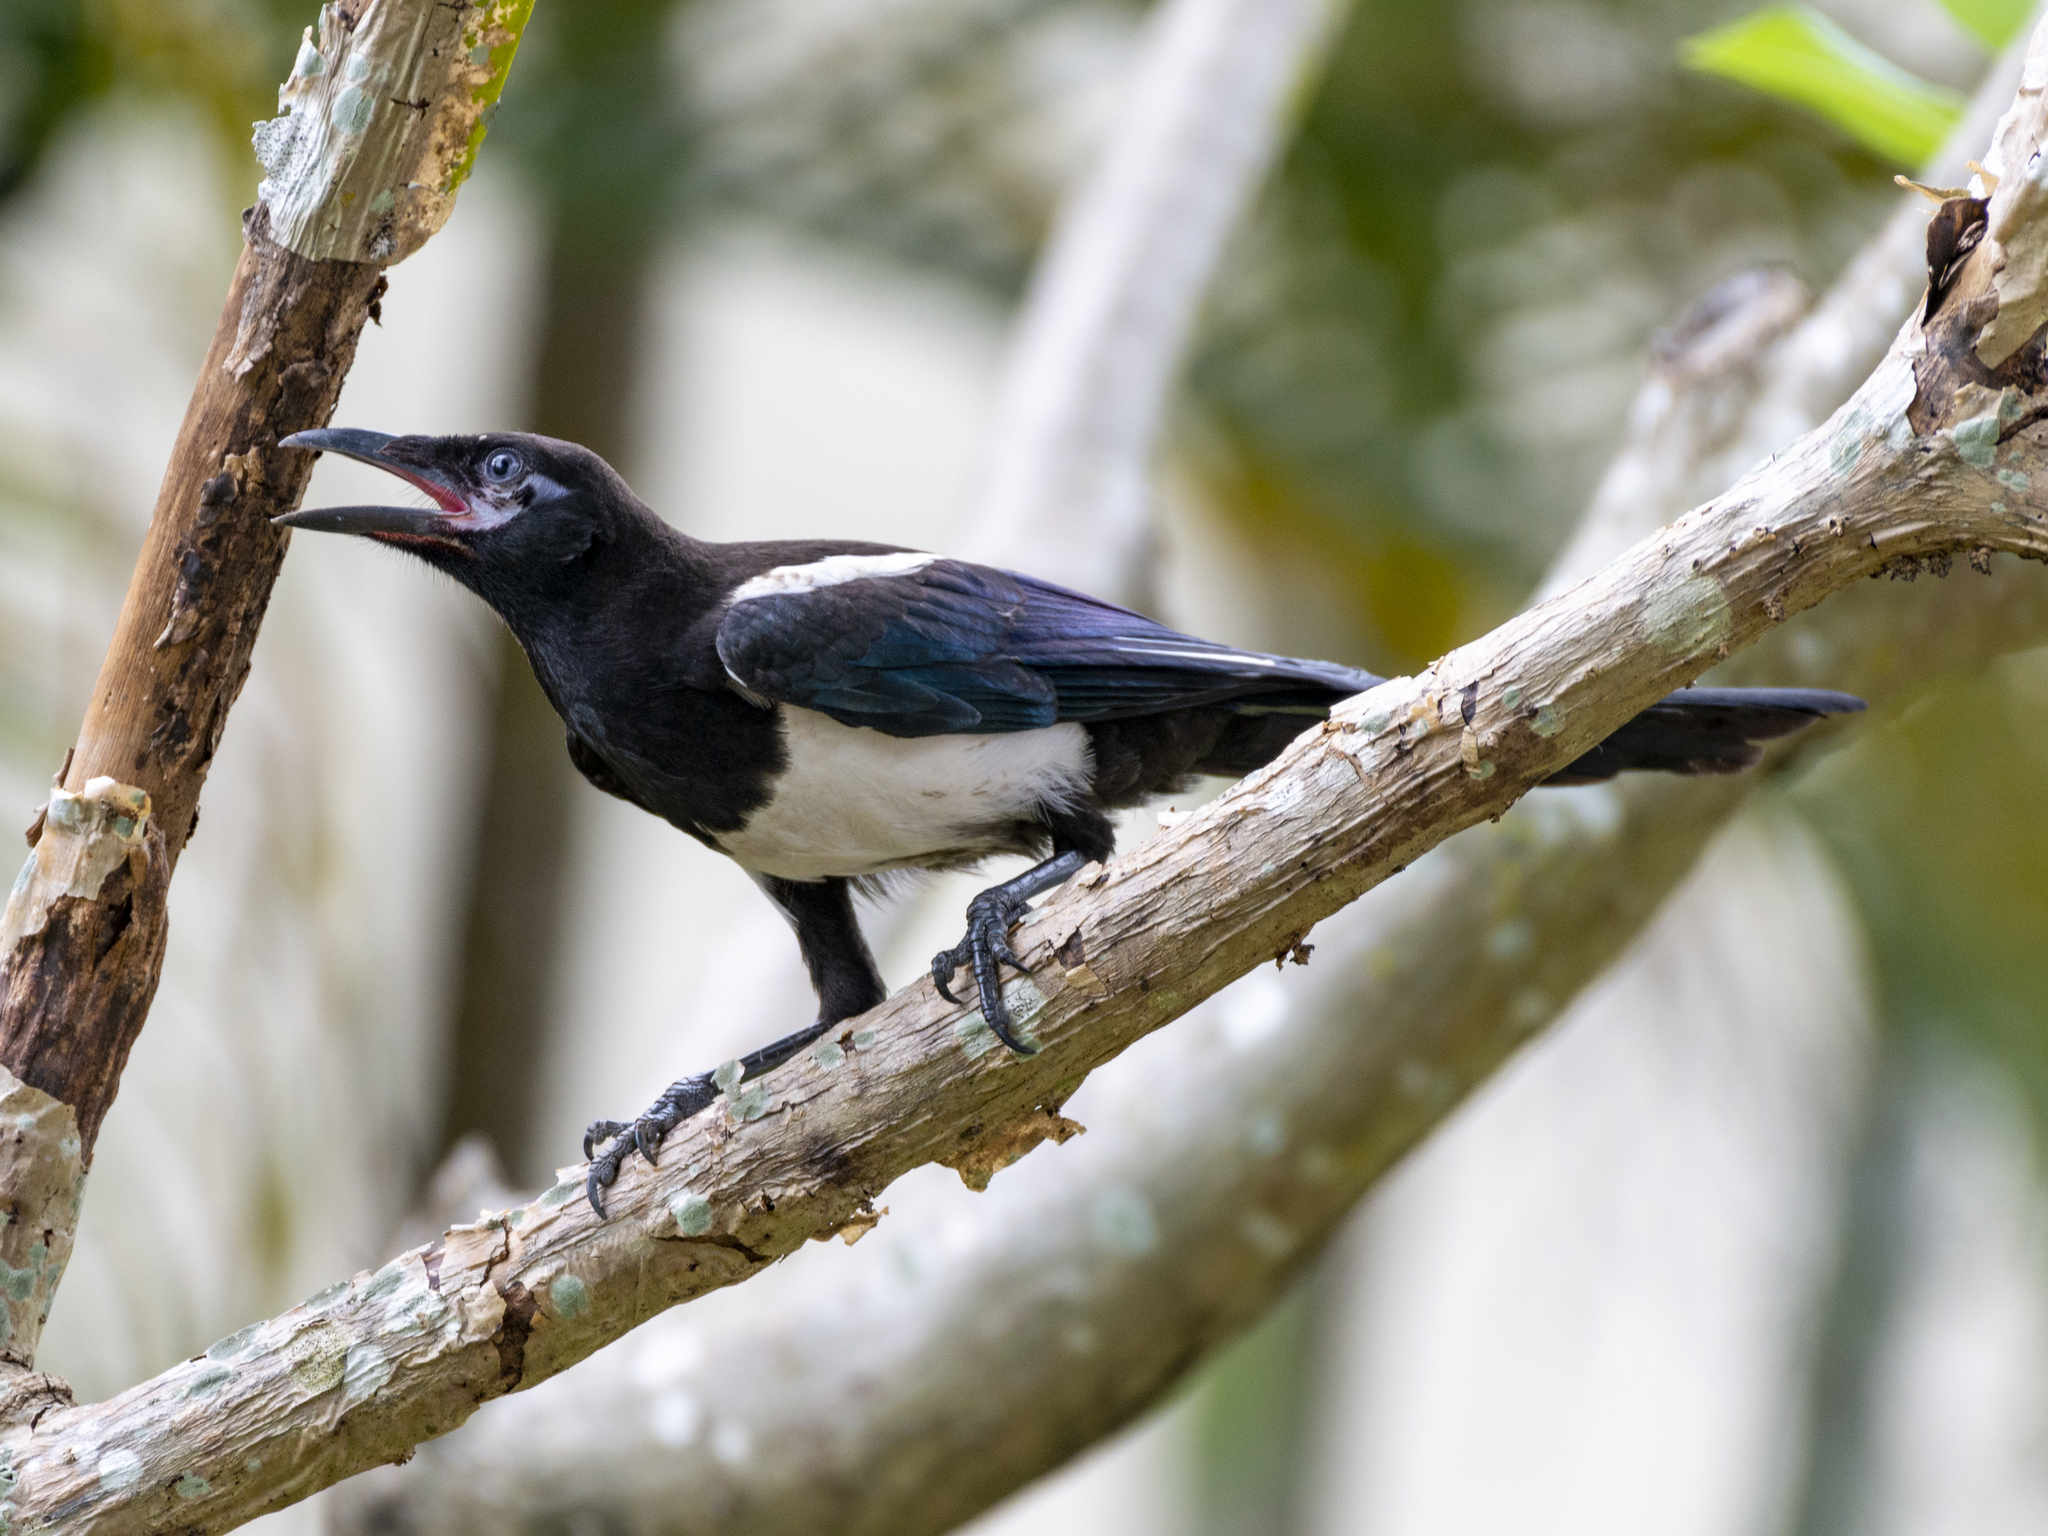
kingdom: Animalia
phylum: Chordata
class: Aves
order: Passeriformes
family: Corvidae
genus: Pica
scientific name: Pica serica
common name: Oriental magpie
